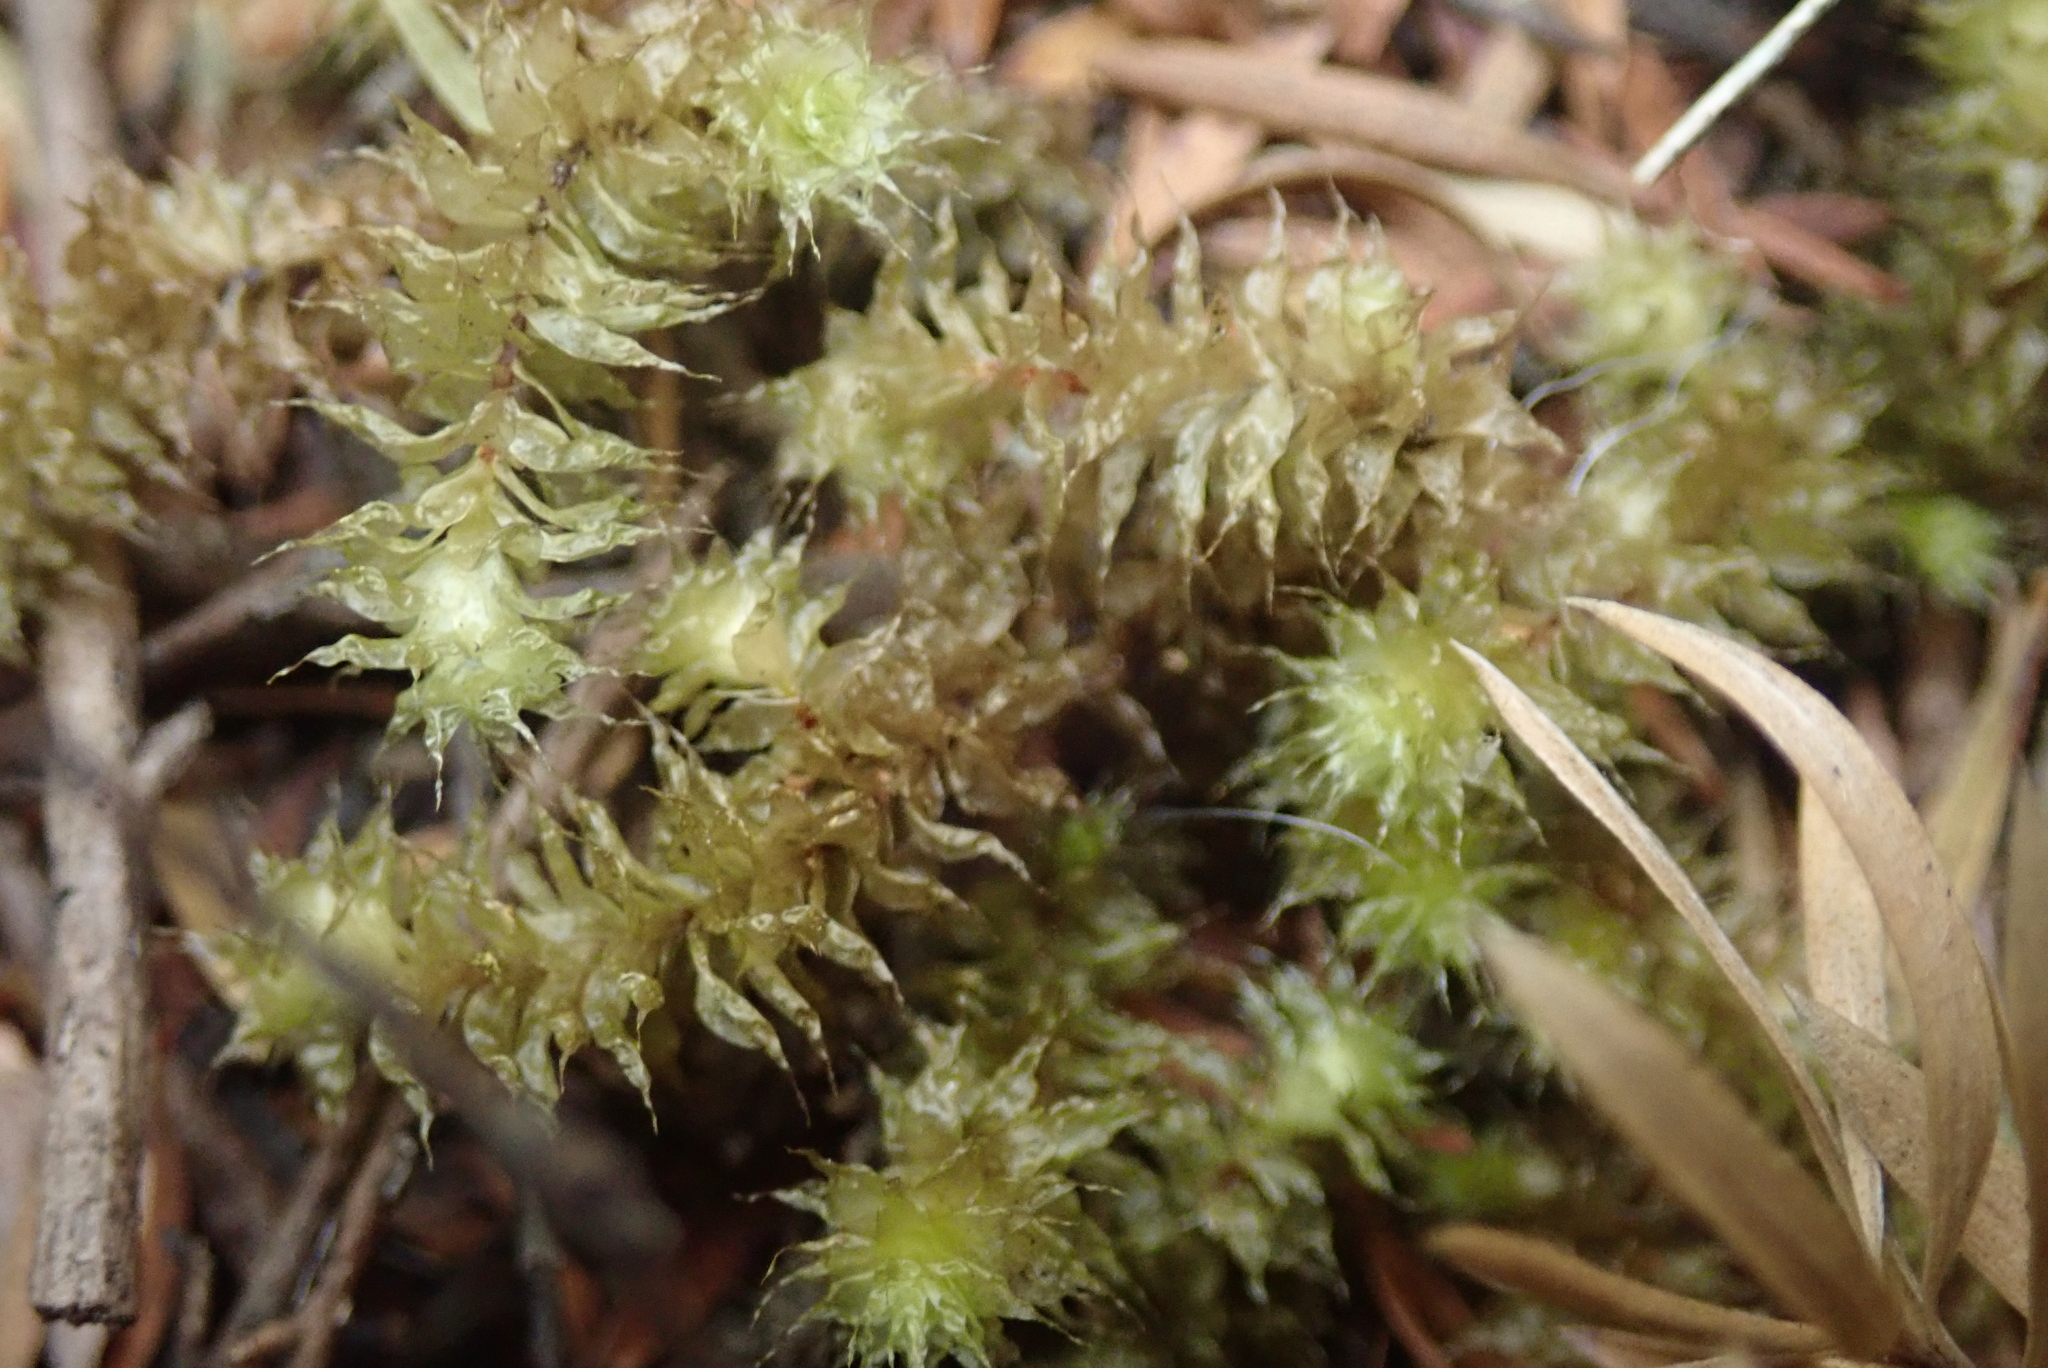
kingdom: Plantae
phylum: Bryophyta
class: Bryopsida
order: Ptychomniales
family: Ptychomniaceae
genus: Ptychomnion
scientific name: Ptychomnion aciculare
